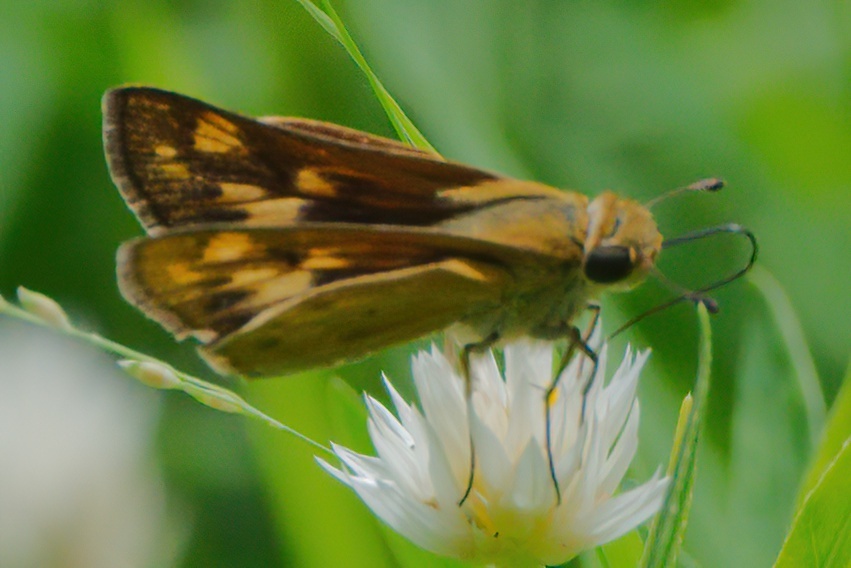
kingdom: Animalia
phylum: Arthropoda
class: Insecta
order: Lepidoptera
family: Hesperiidae
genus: Hylephila
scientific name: Hylephila phyleus
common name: Fiery skipper
